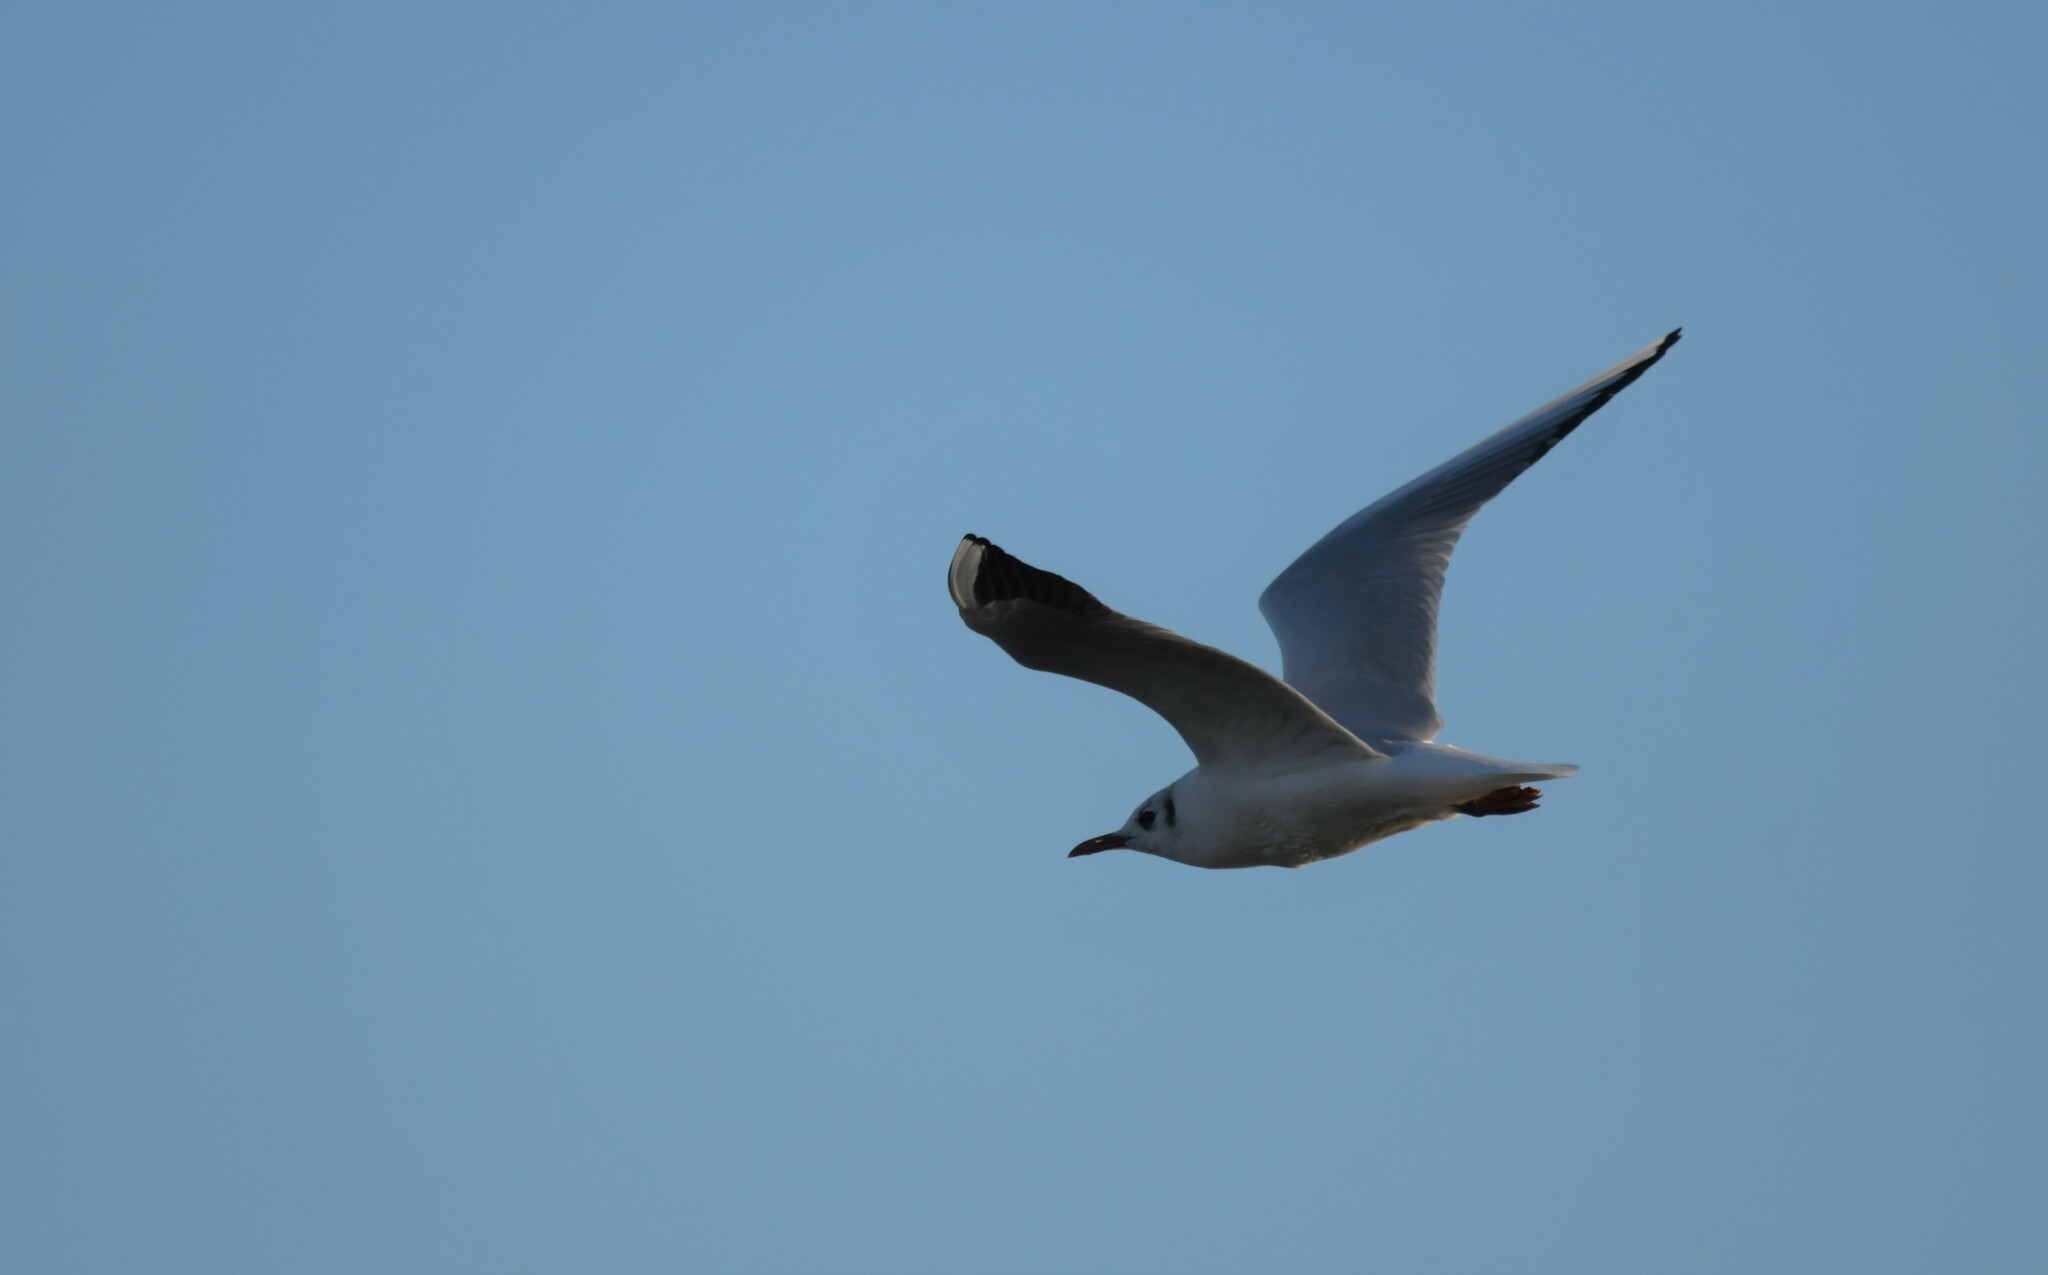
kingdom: Animalia
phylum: Chordata
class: Aves
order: Charadriiformes
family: Laridae
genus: Chroicocephalus
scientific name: Chroicocephalus ridibundus
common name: Black-headed gull
